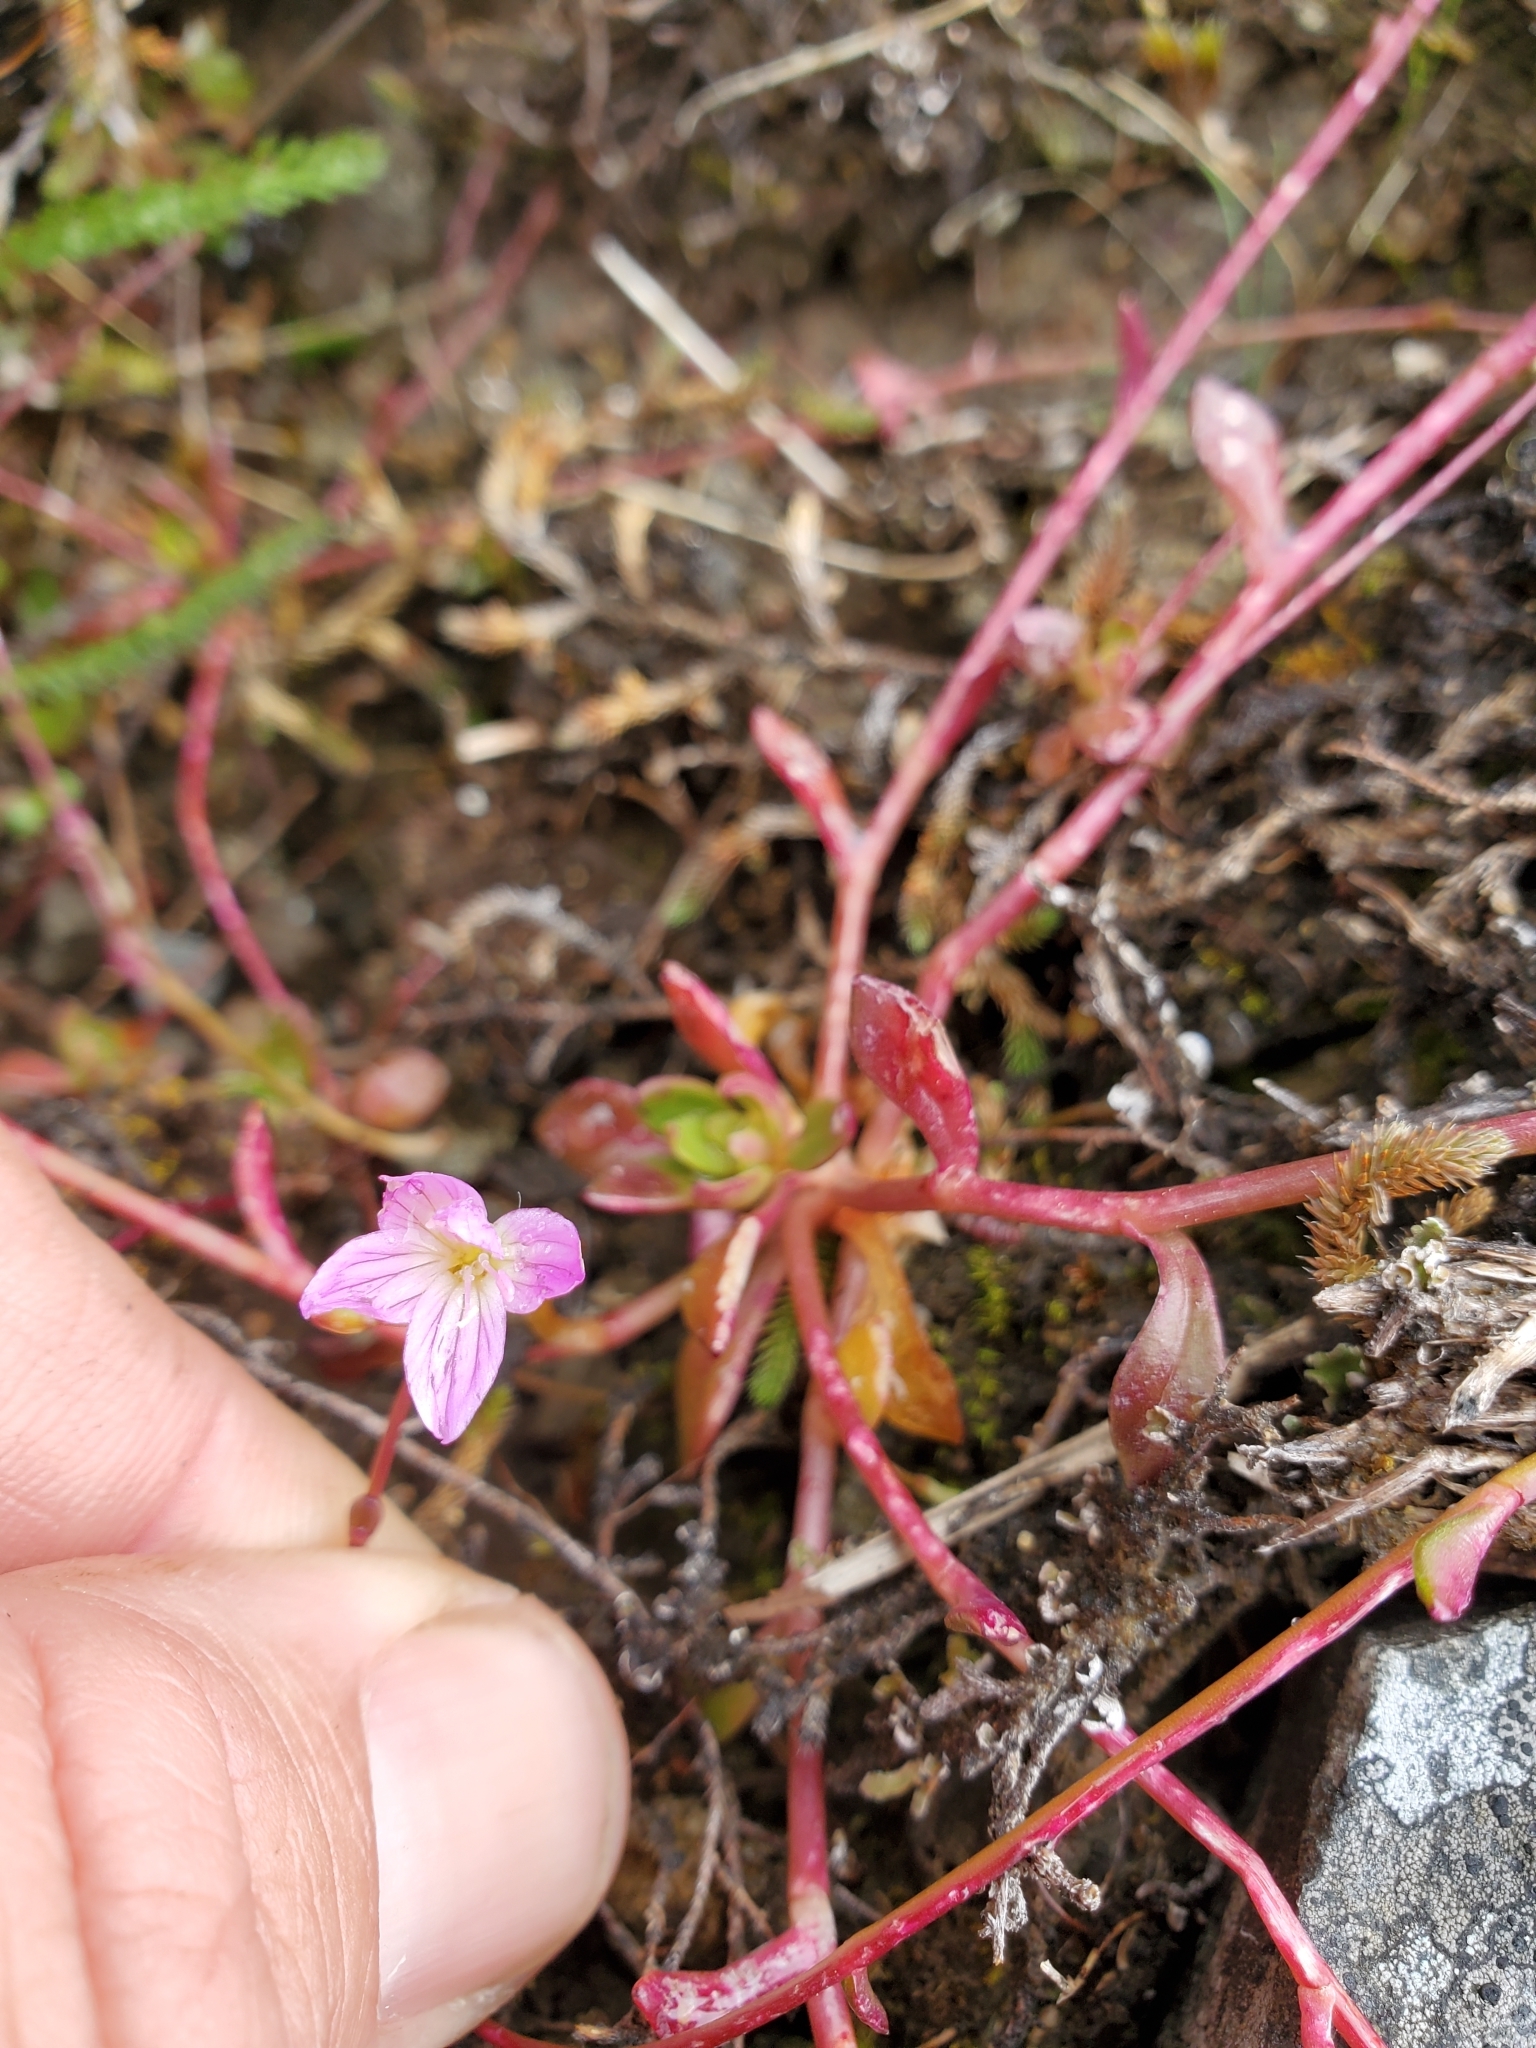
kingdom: Plantae
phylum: Tracheophyta
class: Magnoliopsida
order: Caryophyllales
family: Montiaceae
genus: Montia
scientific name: Montia parvifolia
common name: Small-leaved blinks
